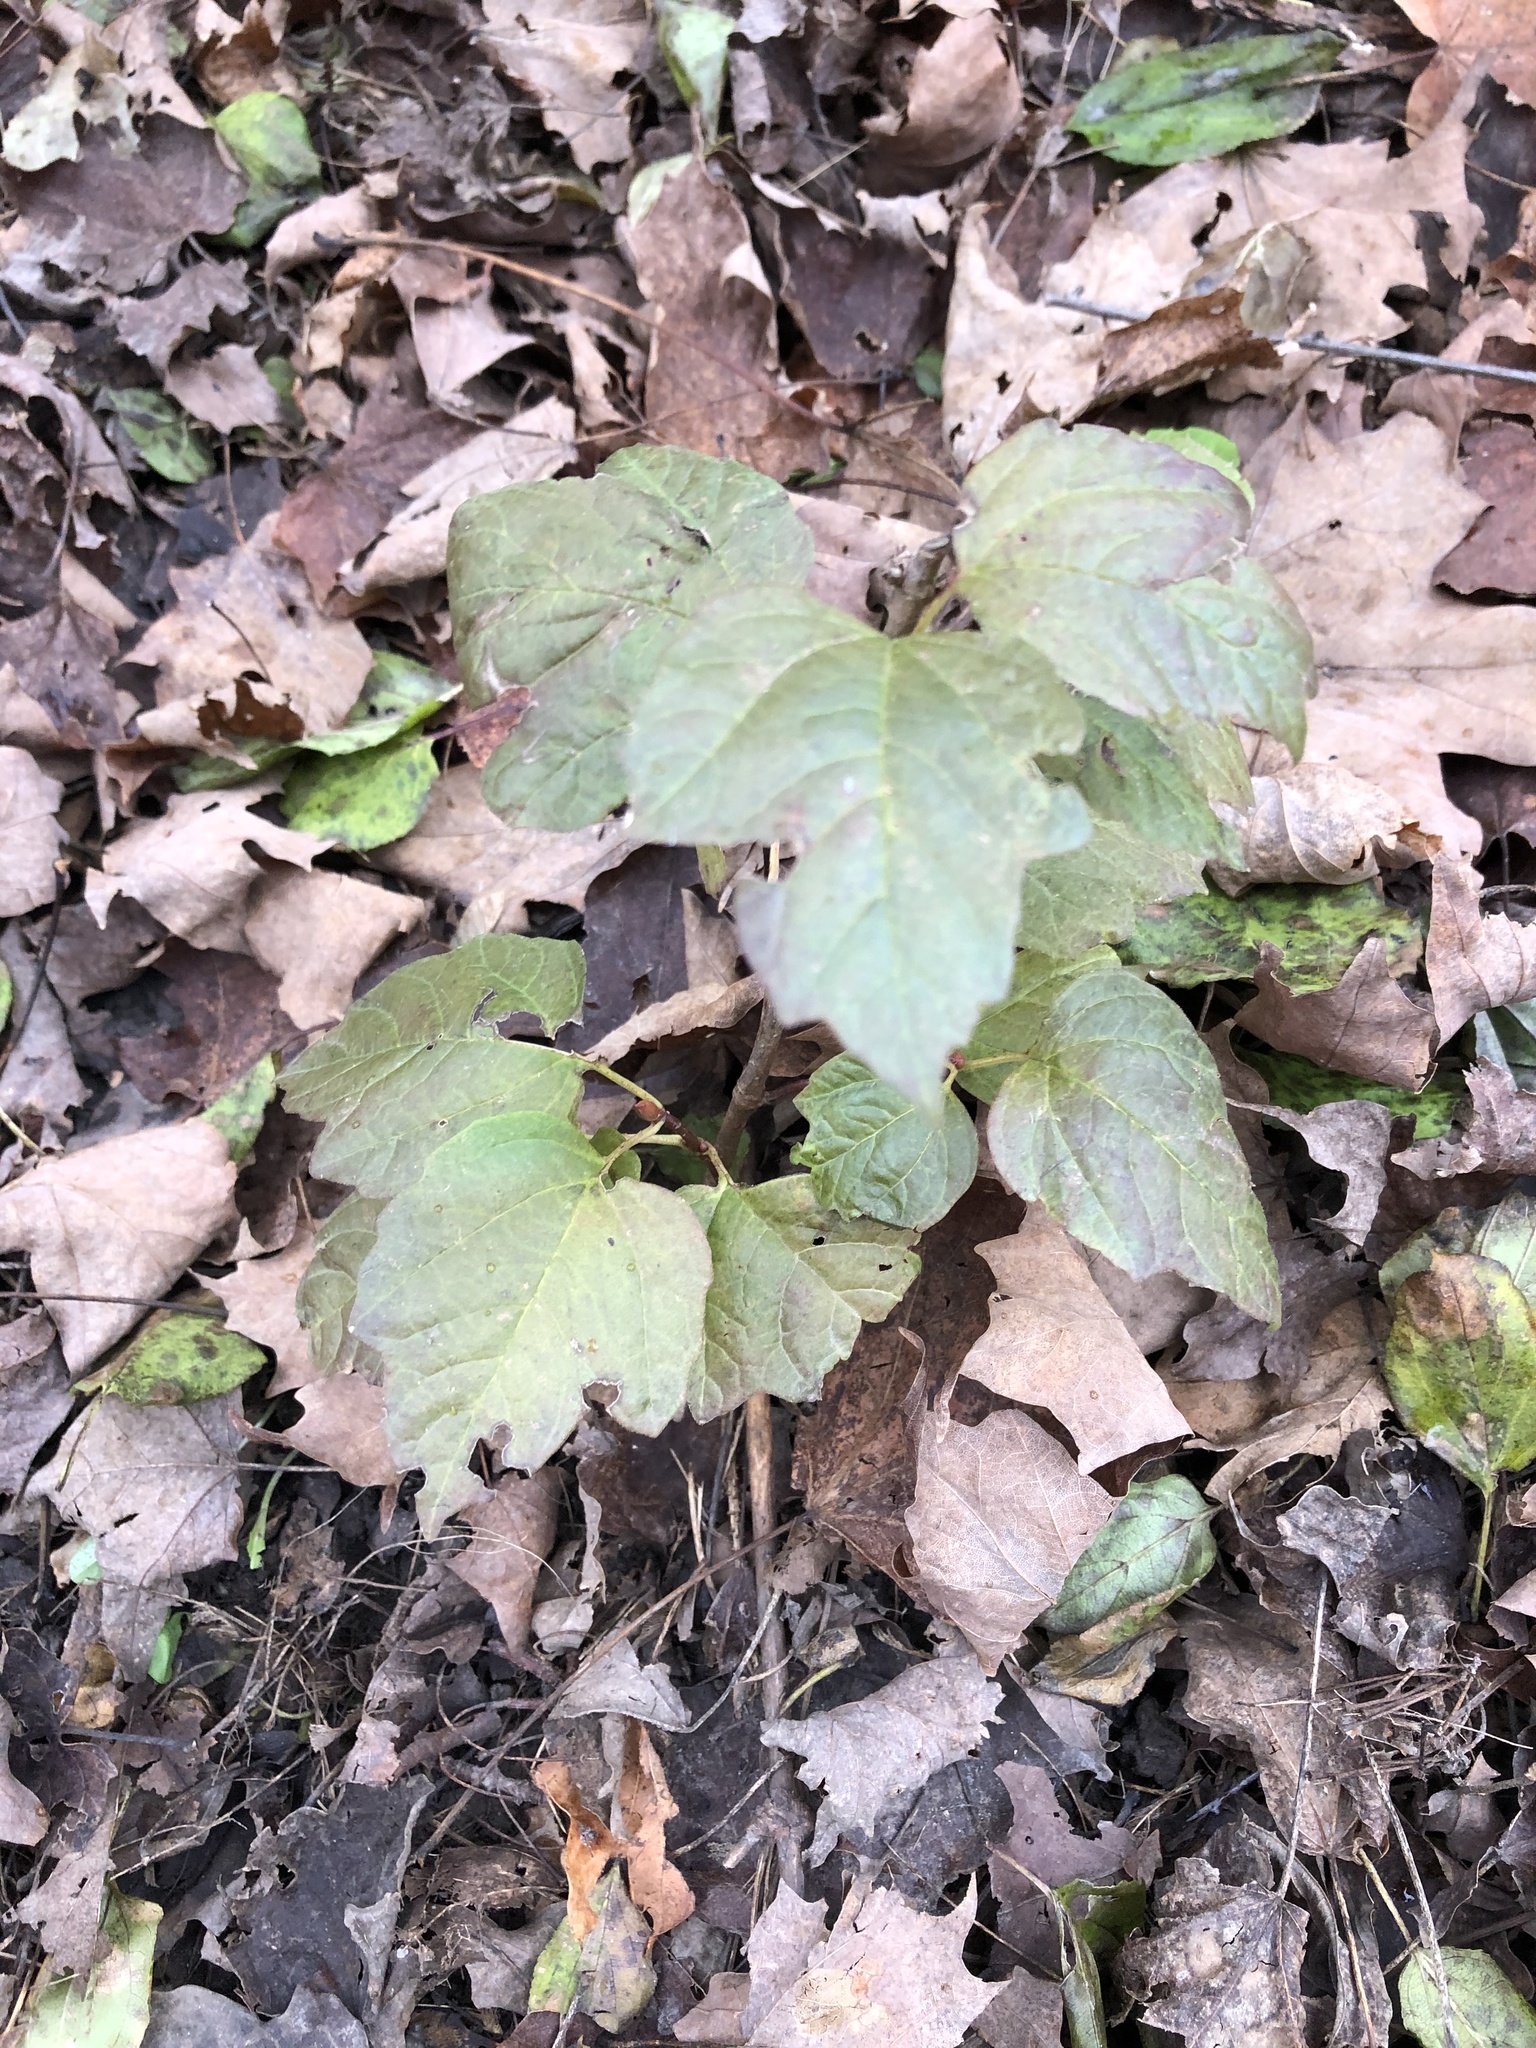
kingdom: Plantae
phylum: Tracheophyta
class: Magnoliopsida
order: Dipsacales
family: Viburnaceae
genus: Viburnum
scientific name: Viburnum opulus
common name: Guelder-rose
